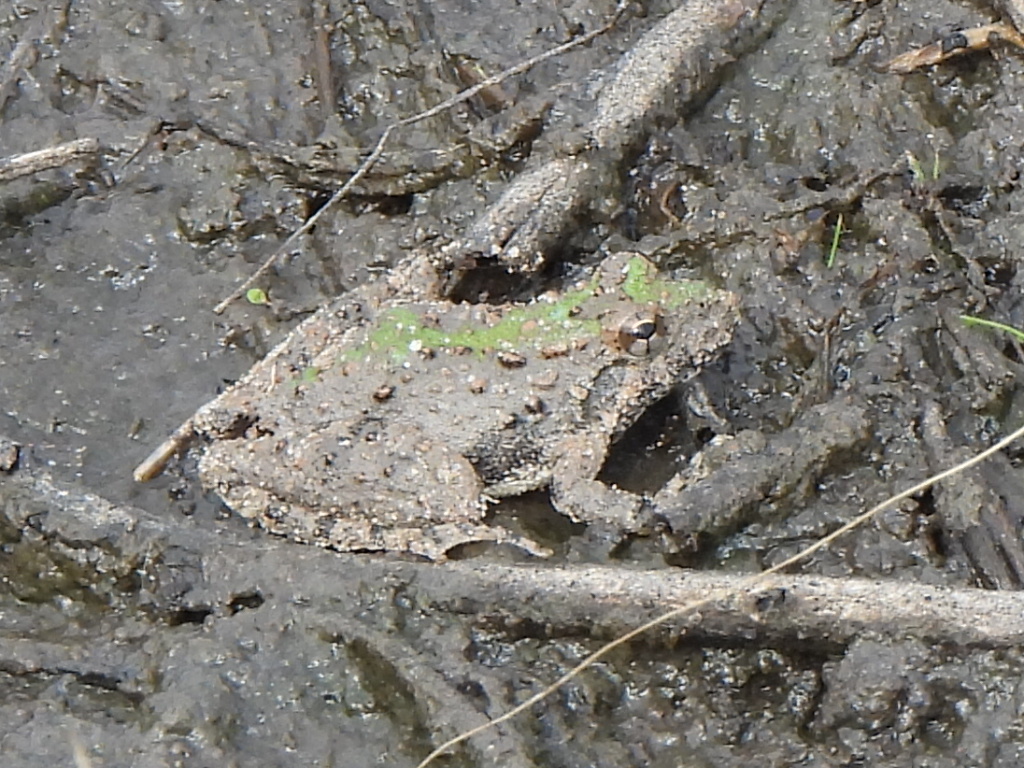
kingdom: Animalia
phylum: Chordata
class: Amphibia
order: Anura
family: Hylidae
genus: Acris
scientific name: Acris blanchardi
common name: Blanchard's cricket frog
